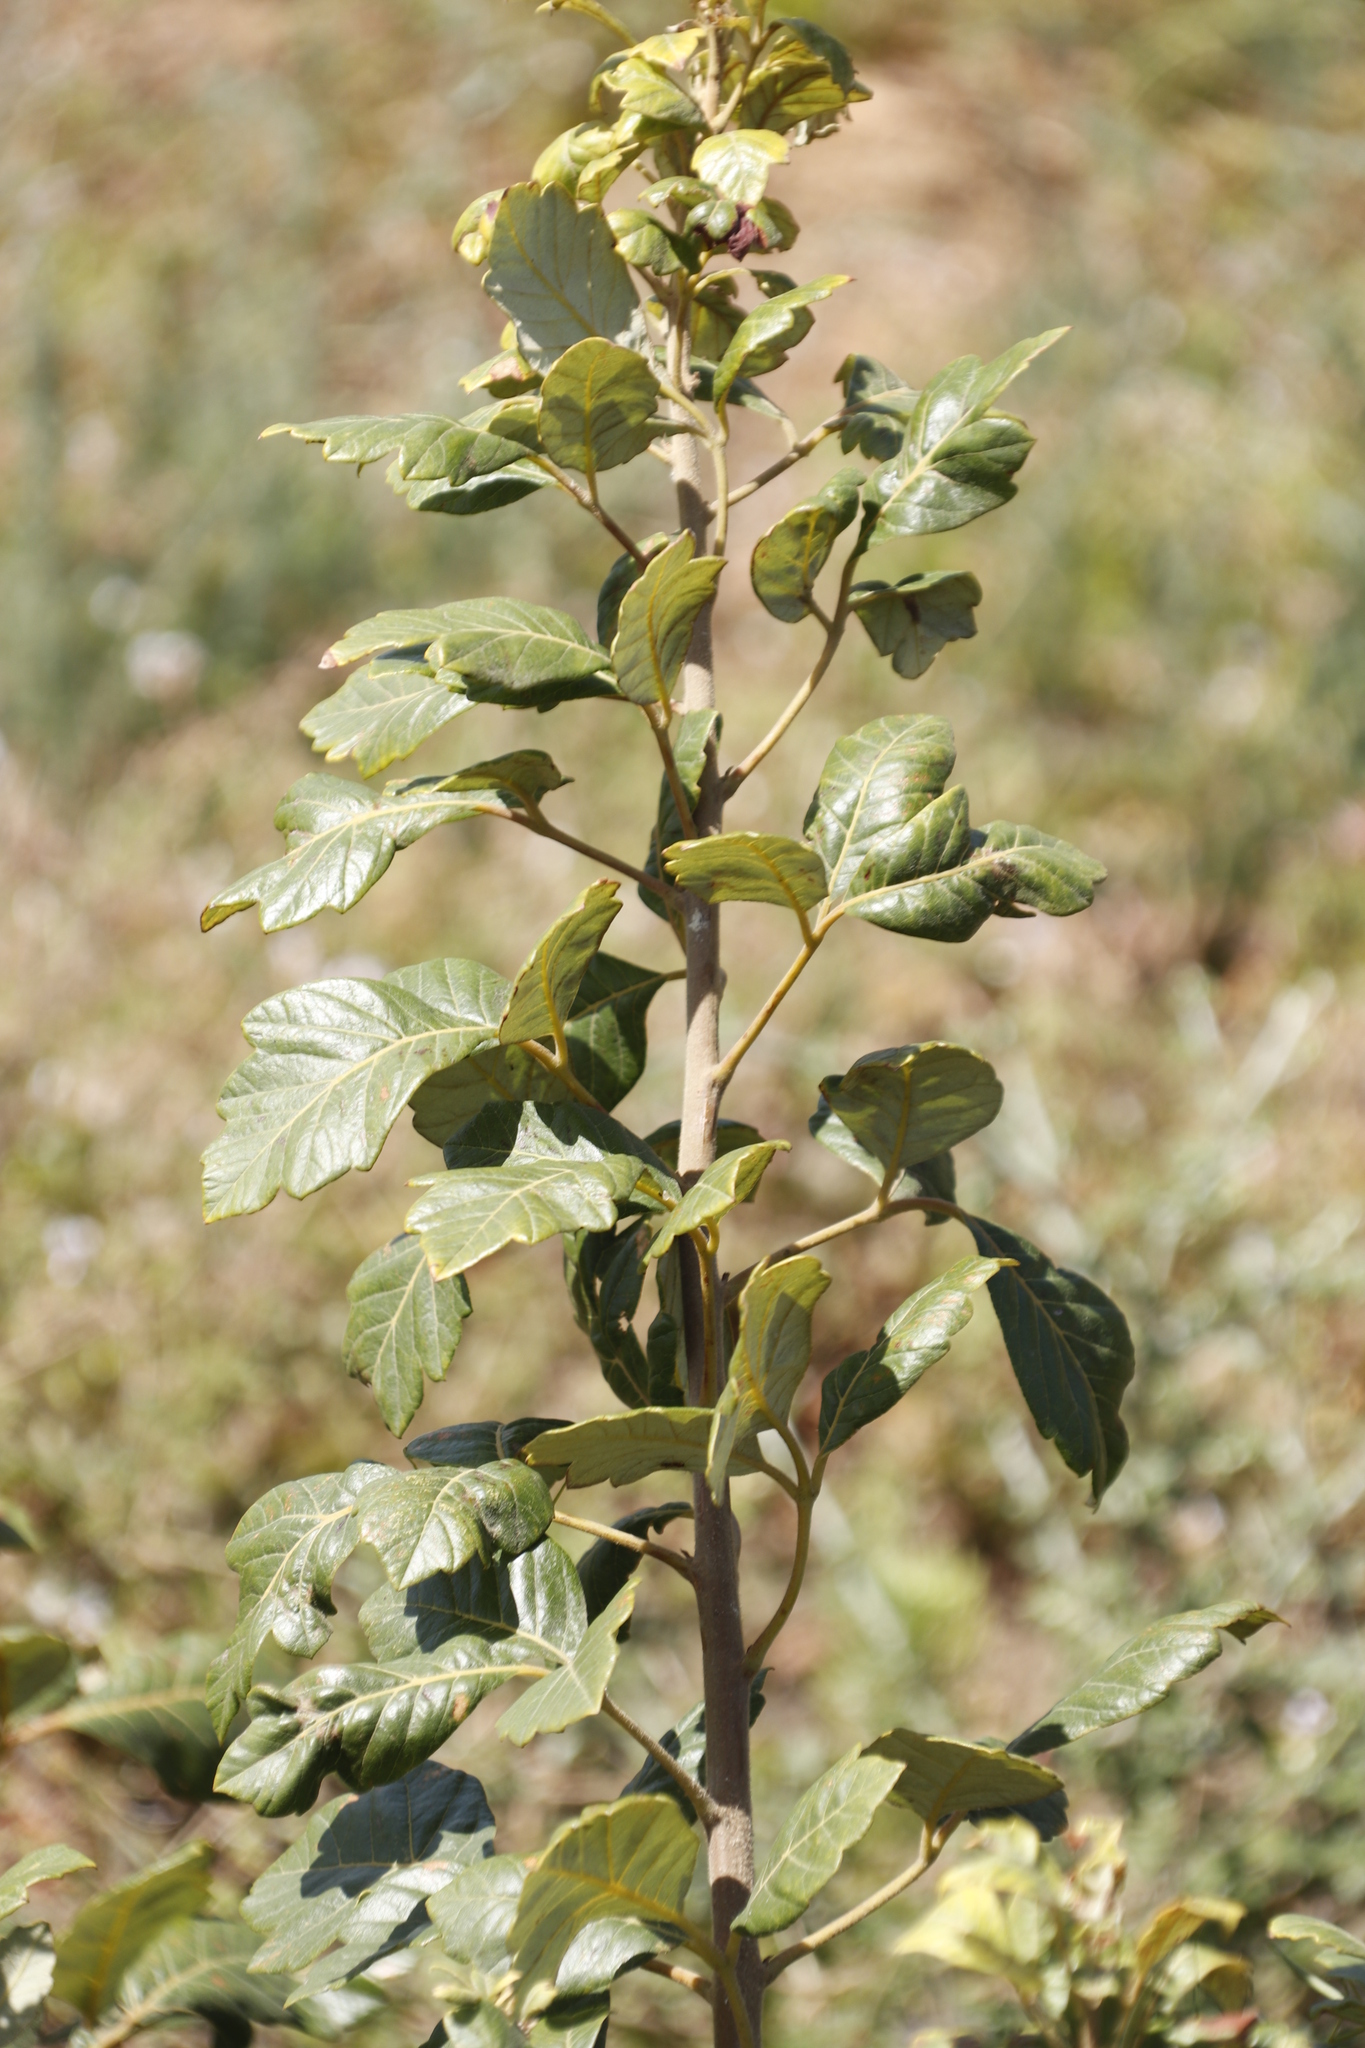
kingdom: Plantae
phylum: Tracheophyta
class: Magnoliopsida
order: Sapindales
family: Anacardiaceae
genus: Searsia
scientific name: Searsia tomentosa
